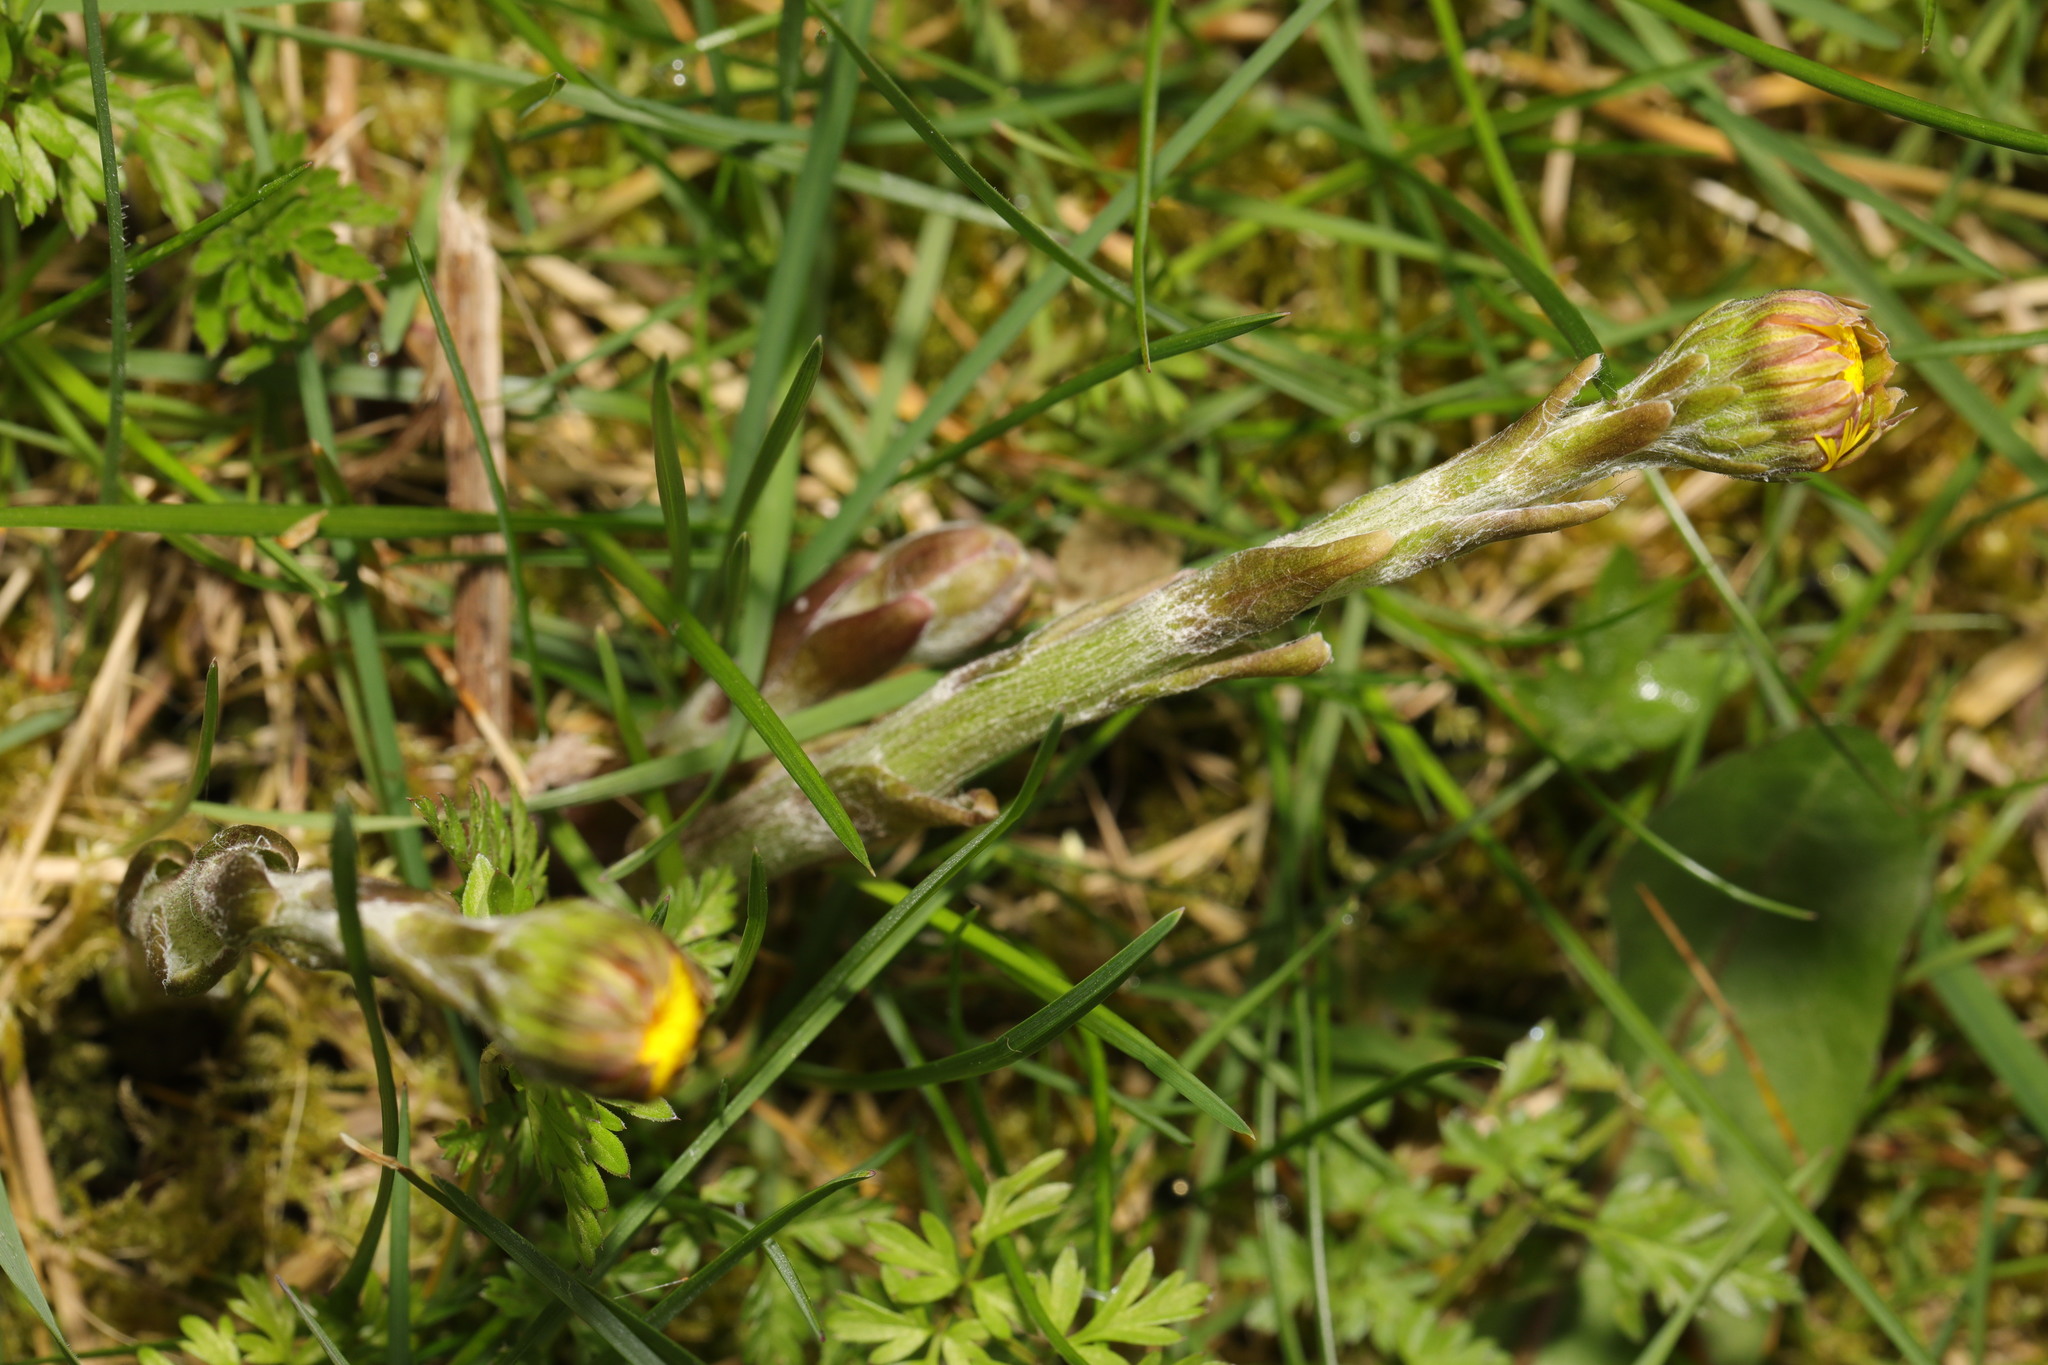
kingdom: Plantae
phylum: Tracheophyta
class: Magnoliopsida
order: Asterales
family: Asteraceae
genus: Tussilago
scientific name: Tussilago farfara
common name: Coltsfoot
